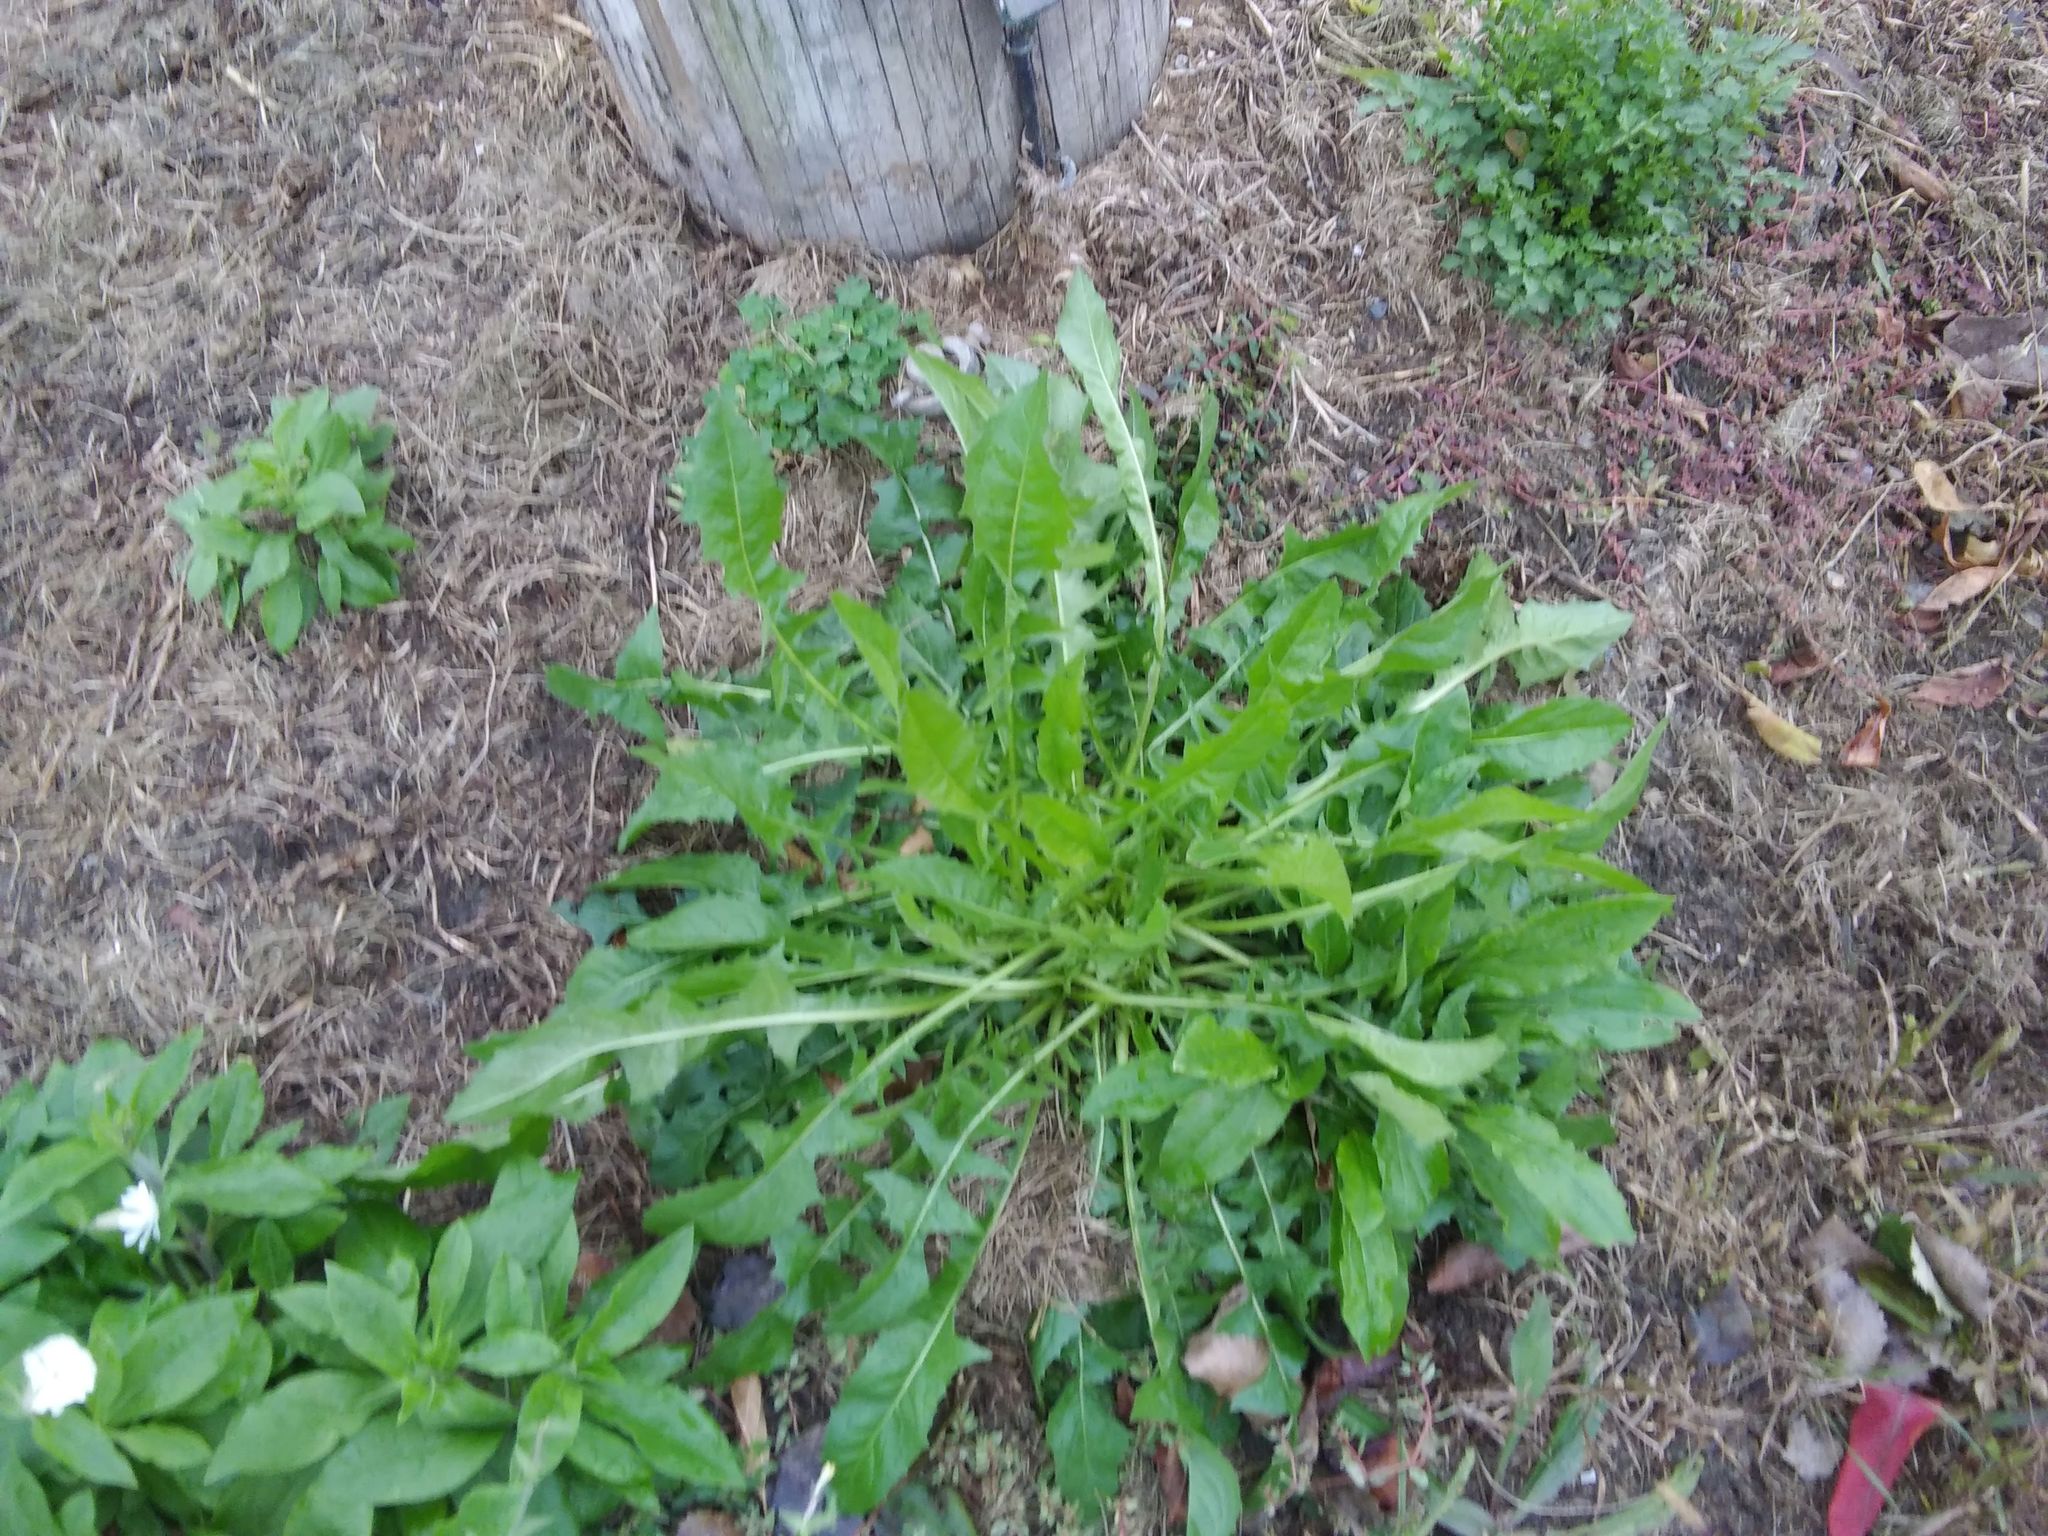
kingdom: Plantae
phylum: Tracheophyta
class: Magnoliopsida
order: Asterales
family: Asteraceae
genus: Taraxacum
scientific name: Taraxacum officinale
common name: Common dandelion
